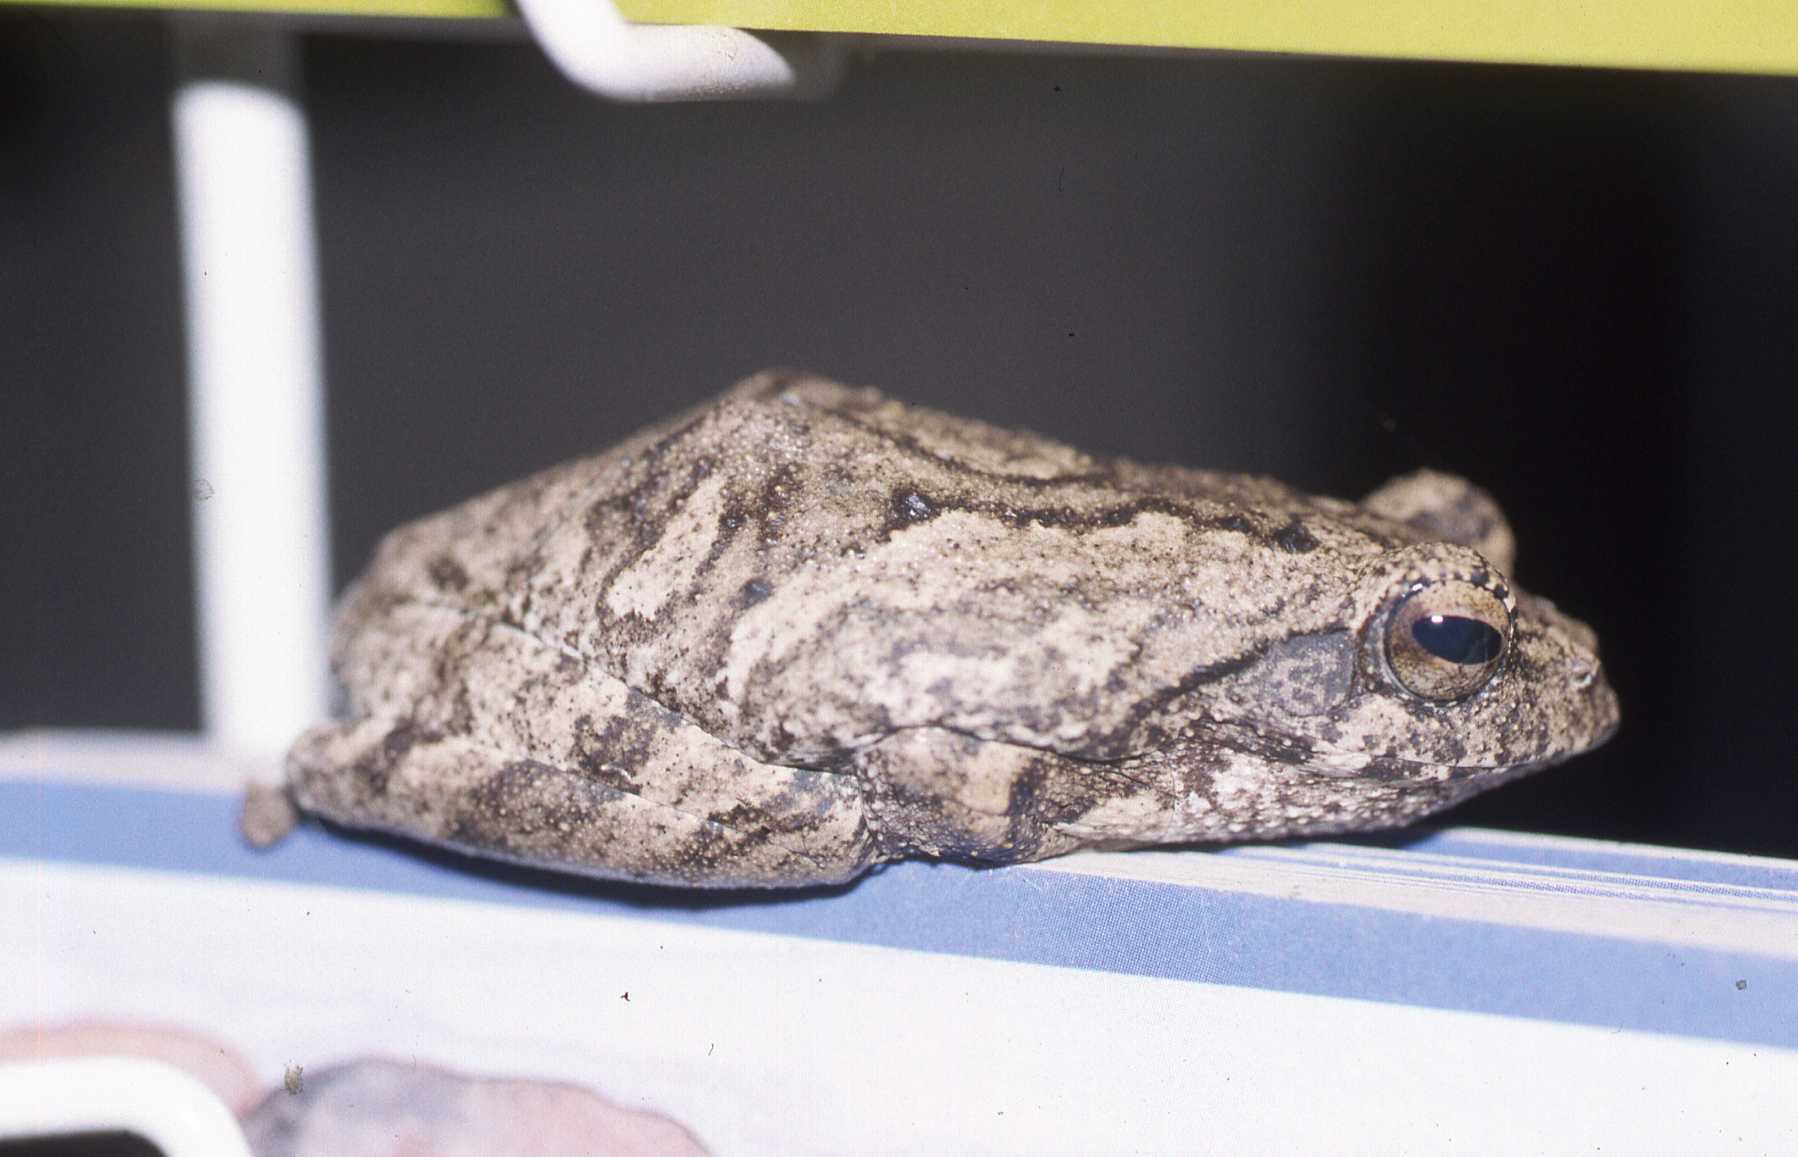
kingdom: Animalia
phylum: Chordata
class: Amphibia
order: Anura
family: Rhacophoridae
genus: Chiromantis
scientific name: Chiromantis xerampelina
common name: African gray treefrog
